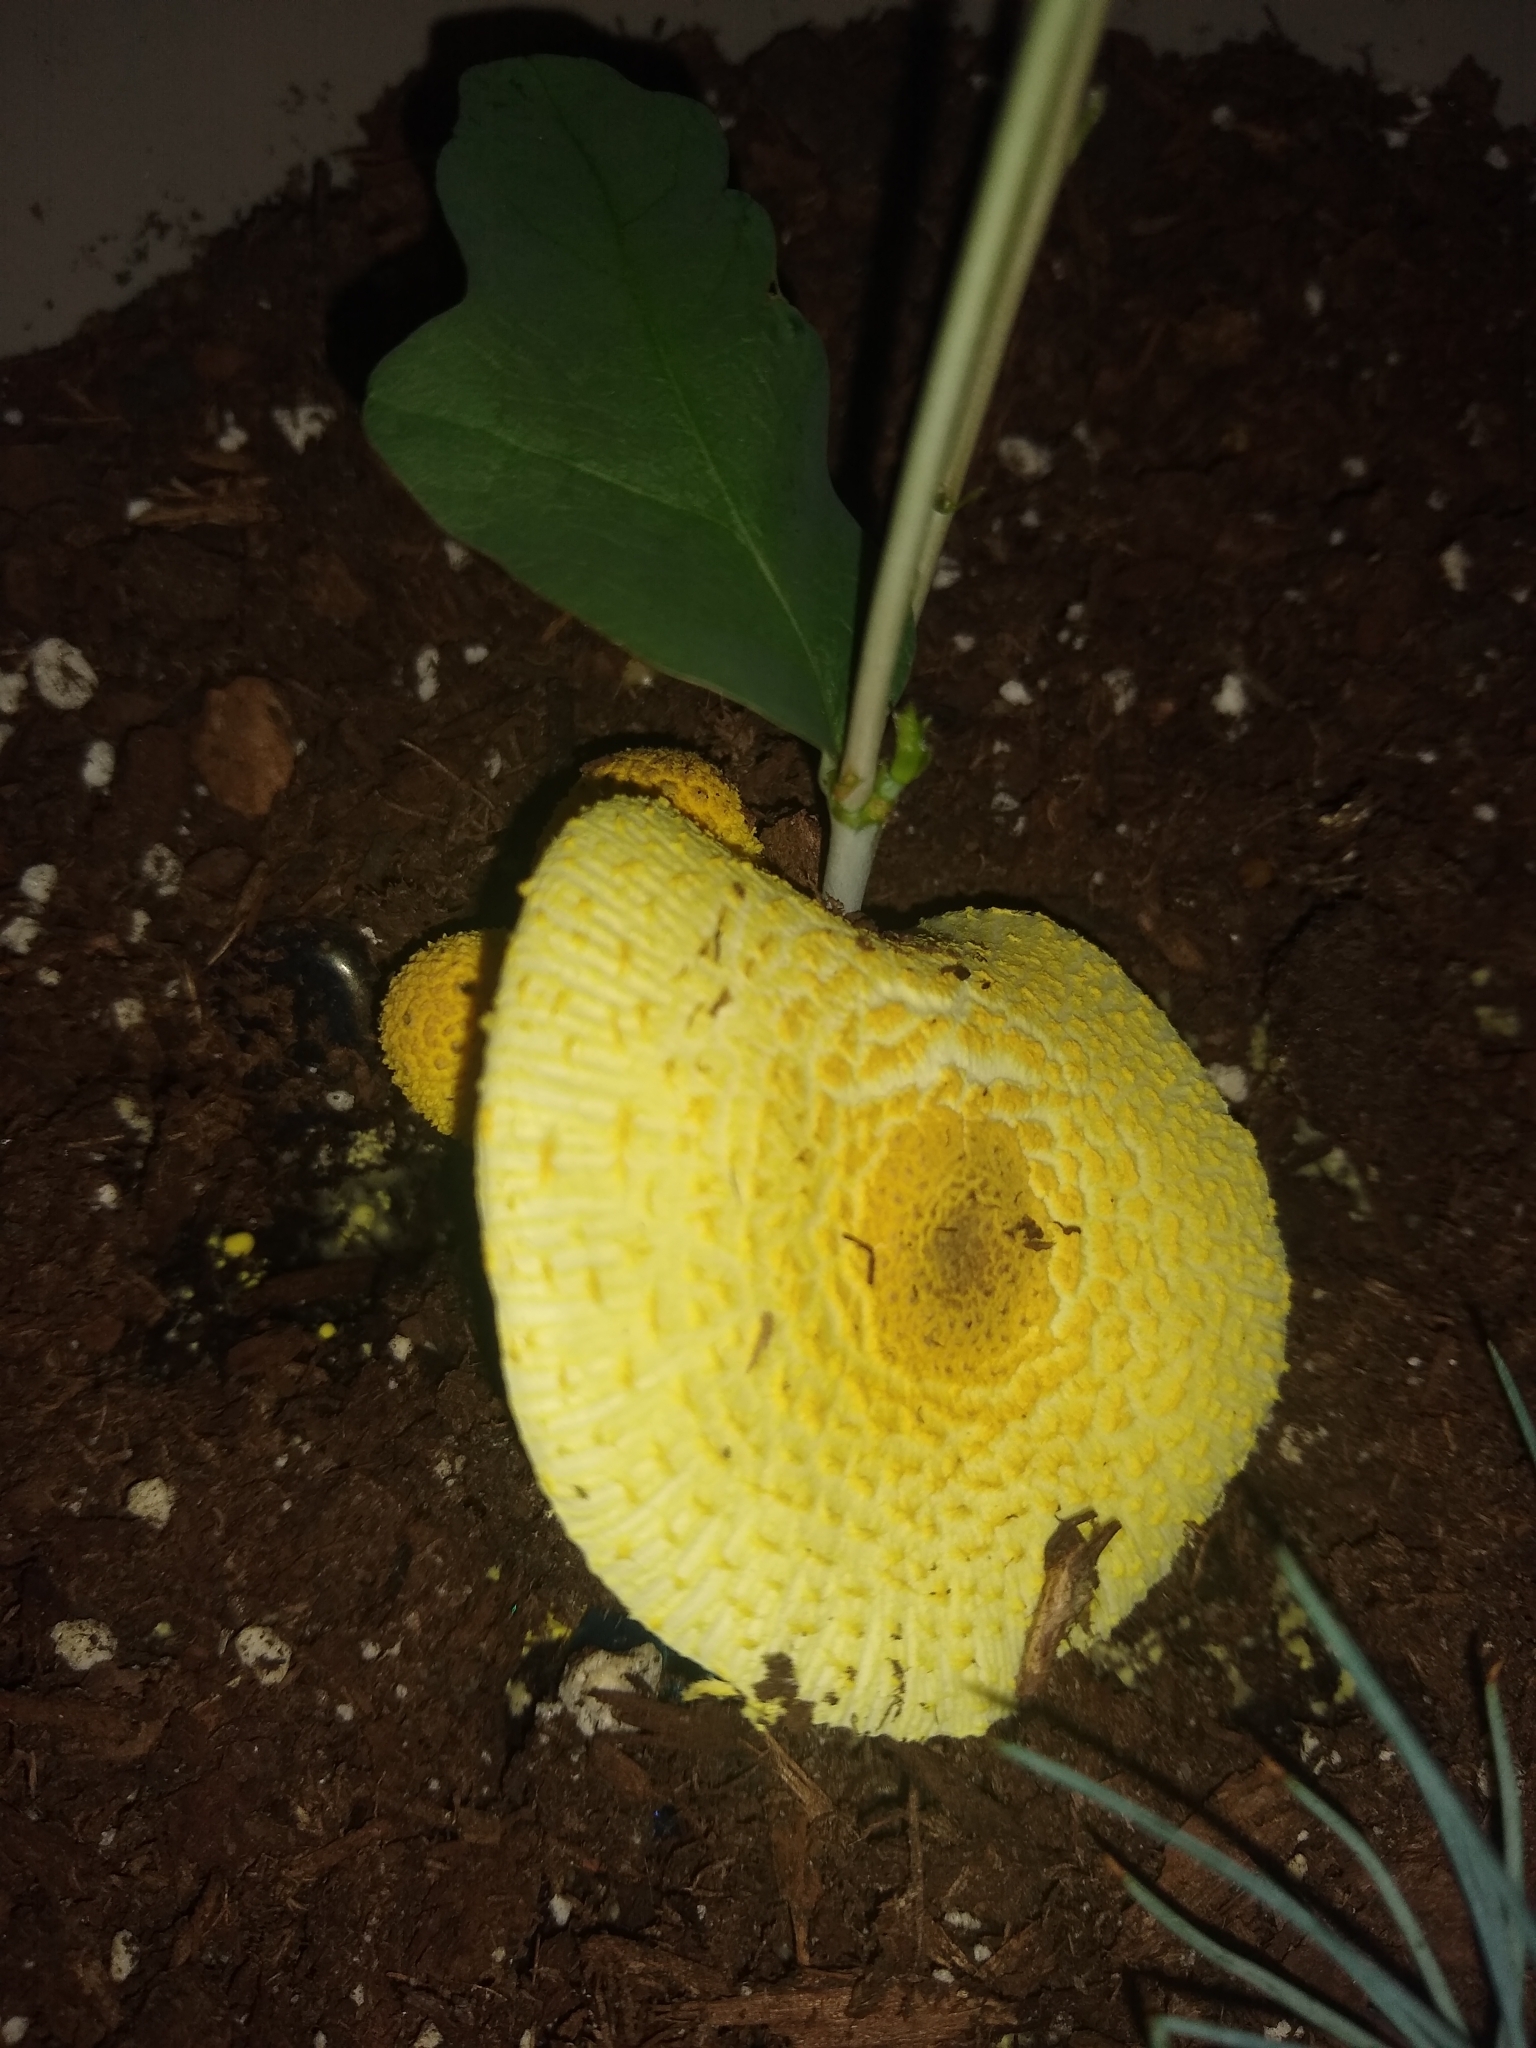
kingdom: Fungi
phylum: Basidiomycota
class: Agaricomycetes
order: Agaricales
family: Agaricaceae
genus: Leucocoprinus
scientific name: Leucocoprinus birnbaumii
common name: Plantpot dapperling
